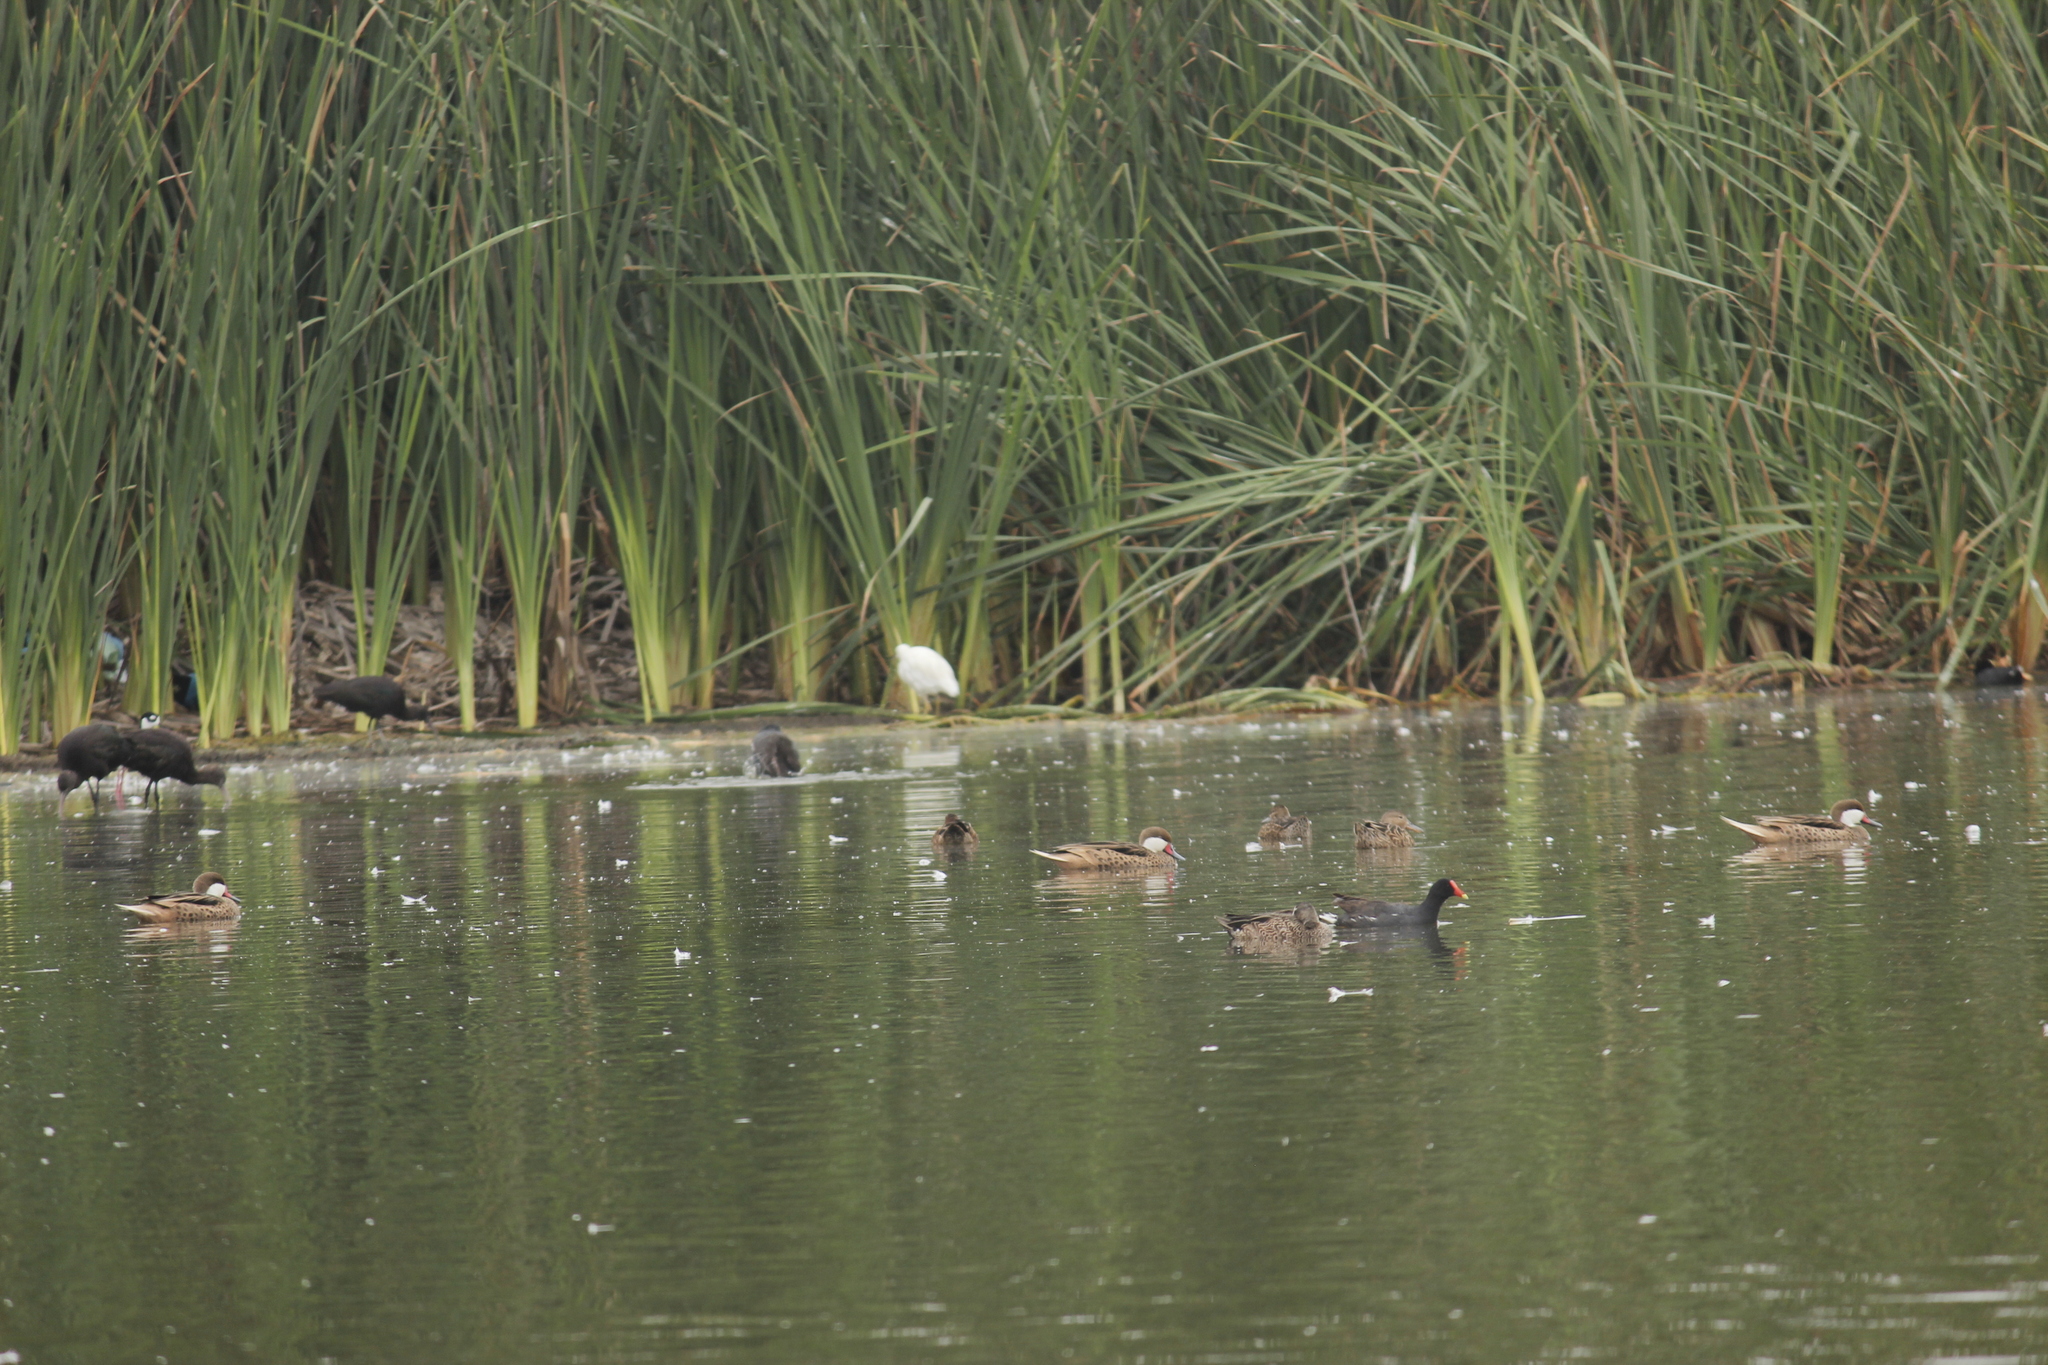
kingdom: Animalia
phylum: Chordata
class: Aves
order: Anseriformes
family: Anatidae
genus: Spatula
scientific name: Spatula discors
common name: Blue-winged teal
